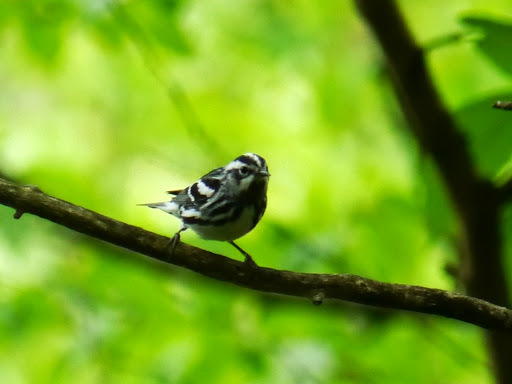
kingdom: Animalia
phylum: Chordata
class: Aves
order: Passeriformes
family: Parulidae
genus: Mniotilta
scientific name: Mniotilta varia
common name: Black-and-white warbler
